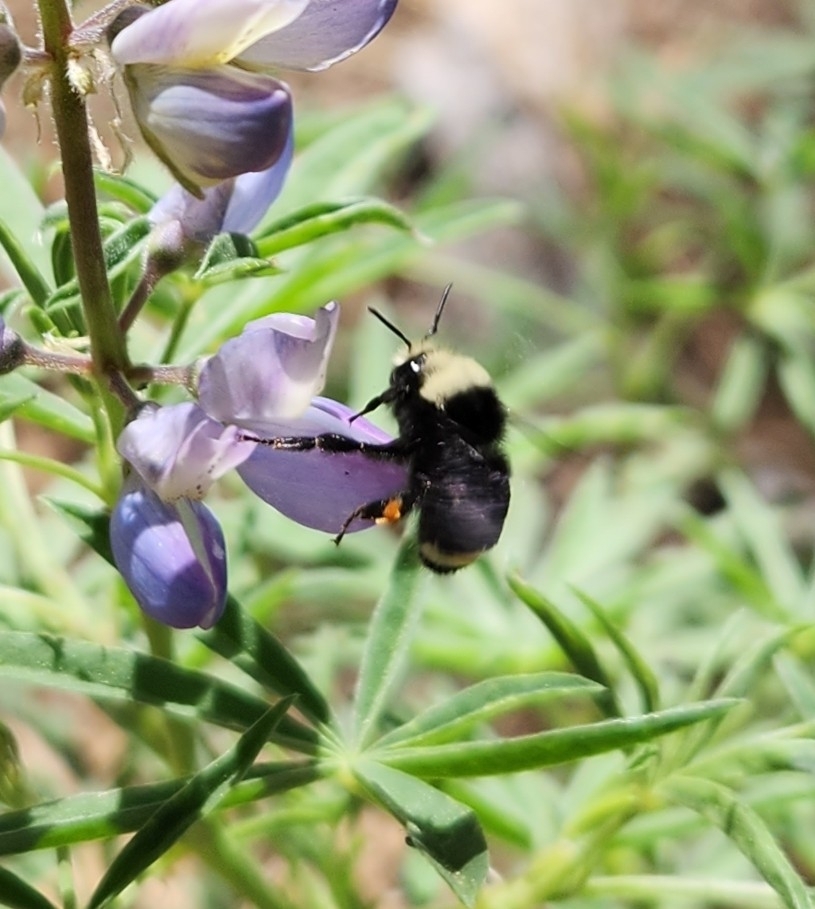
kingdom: Animalia
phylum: Arthropoda
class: Insecta
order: Hymenoptera
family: Apidae
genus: Bombus
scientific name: Bombus vosnesenskii
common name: Vosnesensky bumble bee
